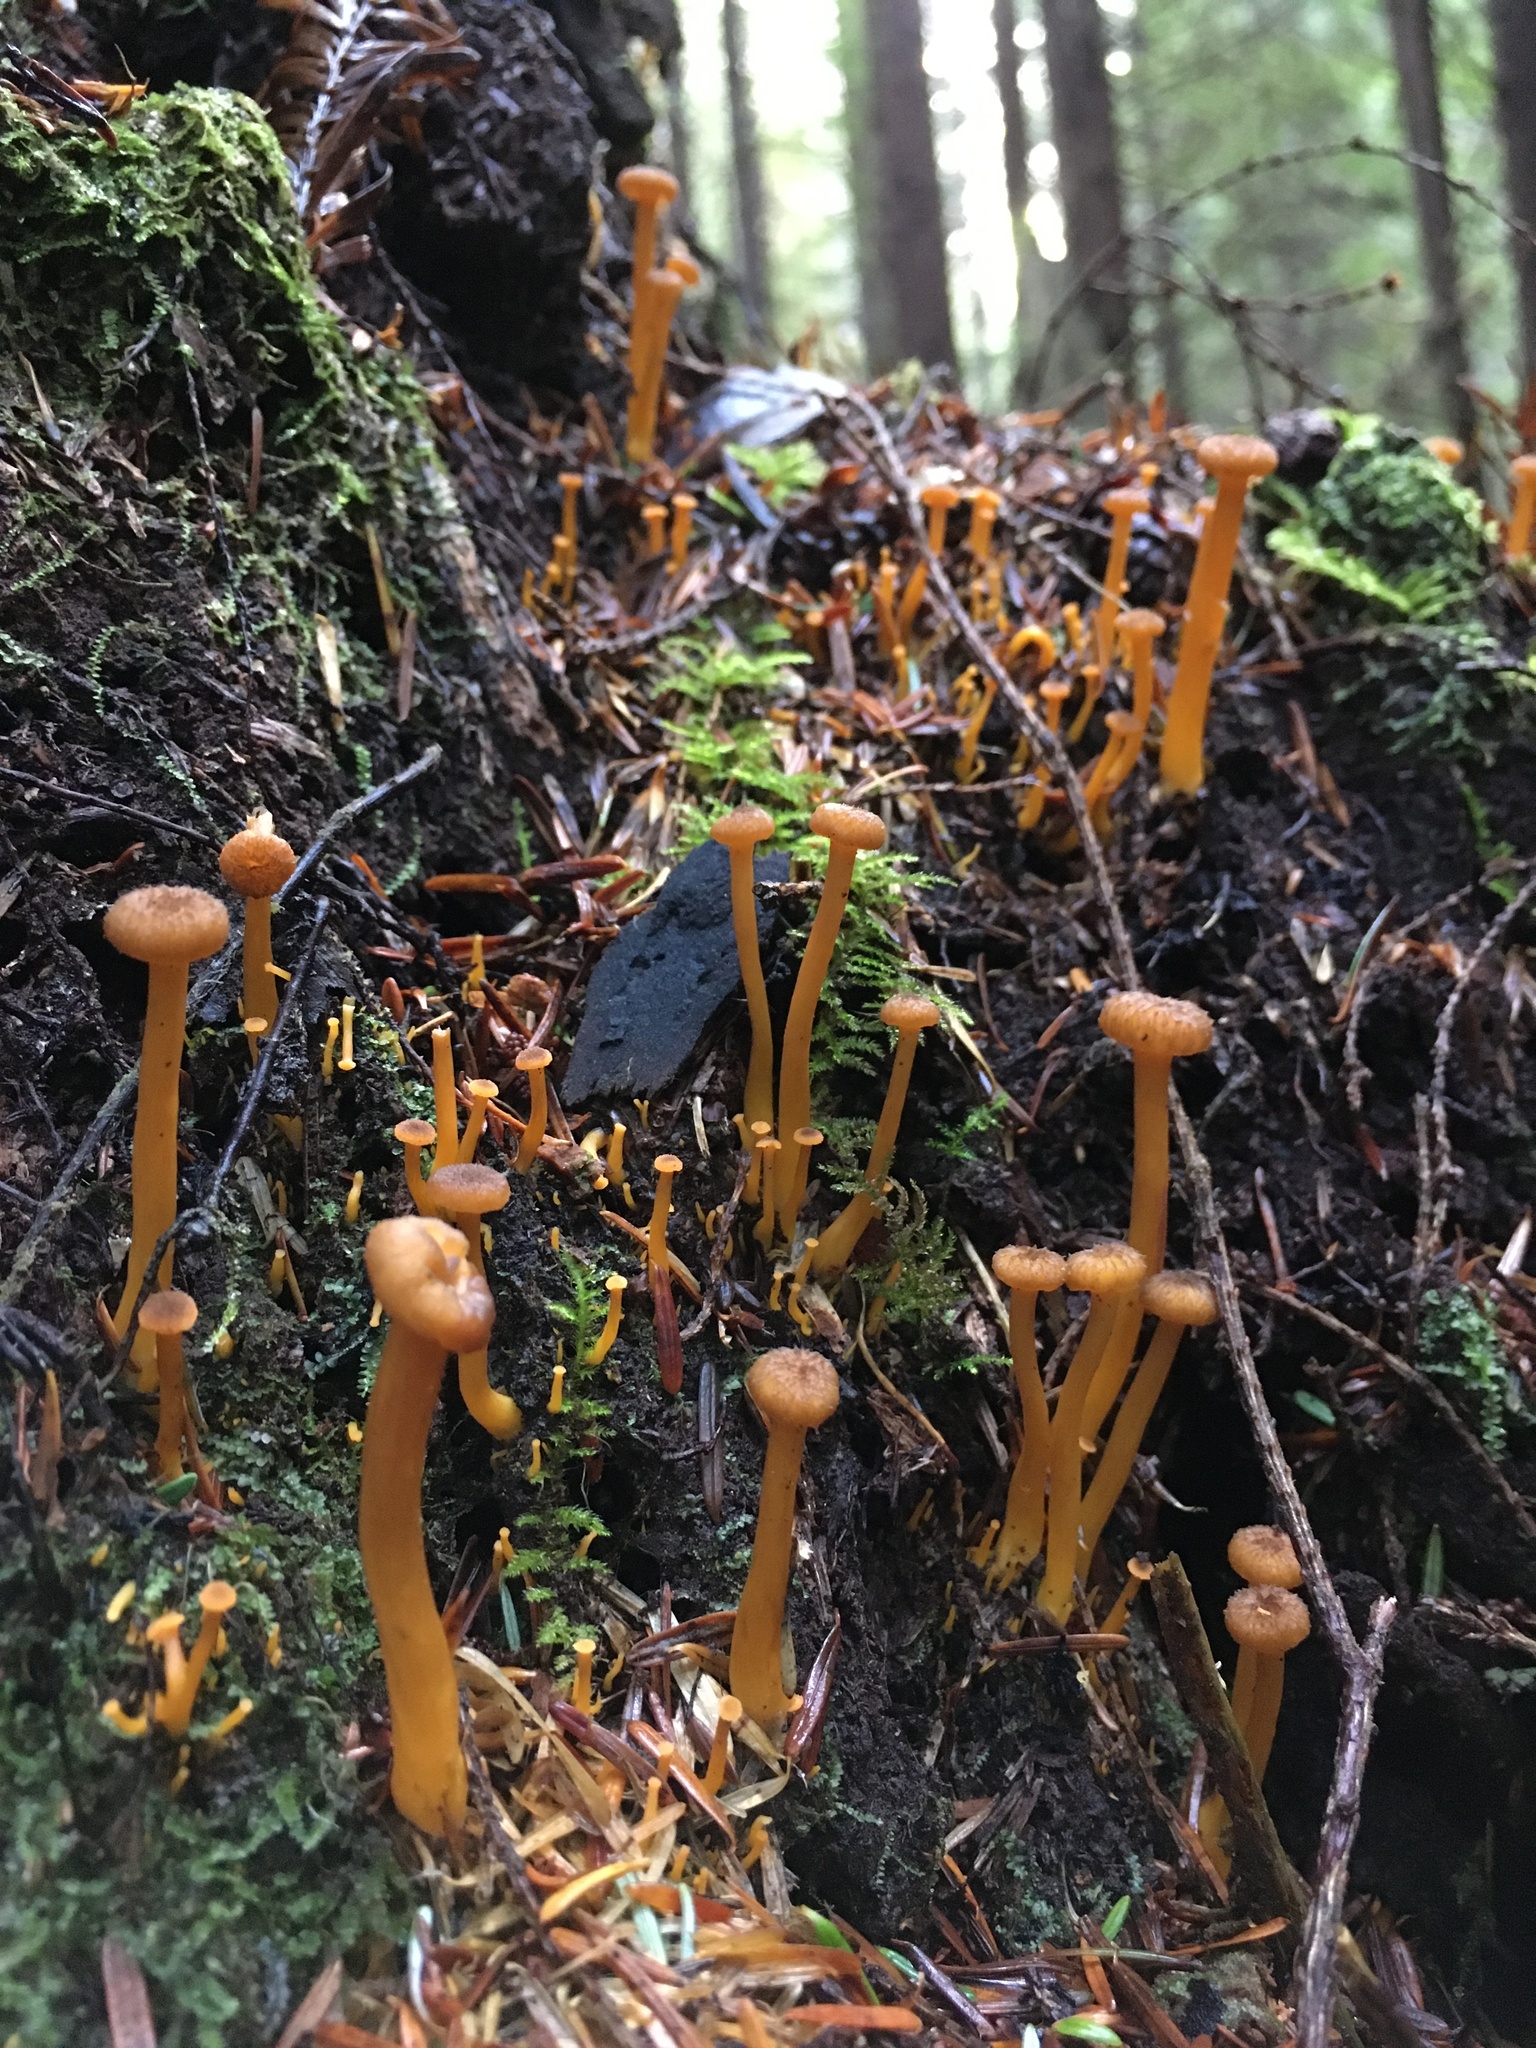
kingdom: Fungi
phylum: Basidiomycota
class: Agaricomycetes
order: Cantharellales
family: Hydnaceae
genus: Craterellus
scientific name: Craterellus tubaeformis
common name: Yellowfoot
